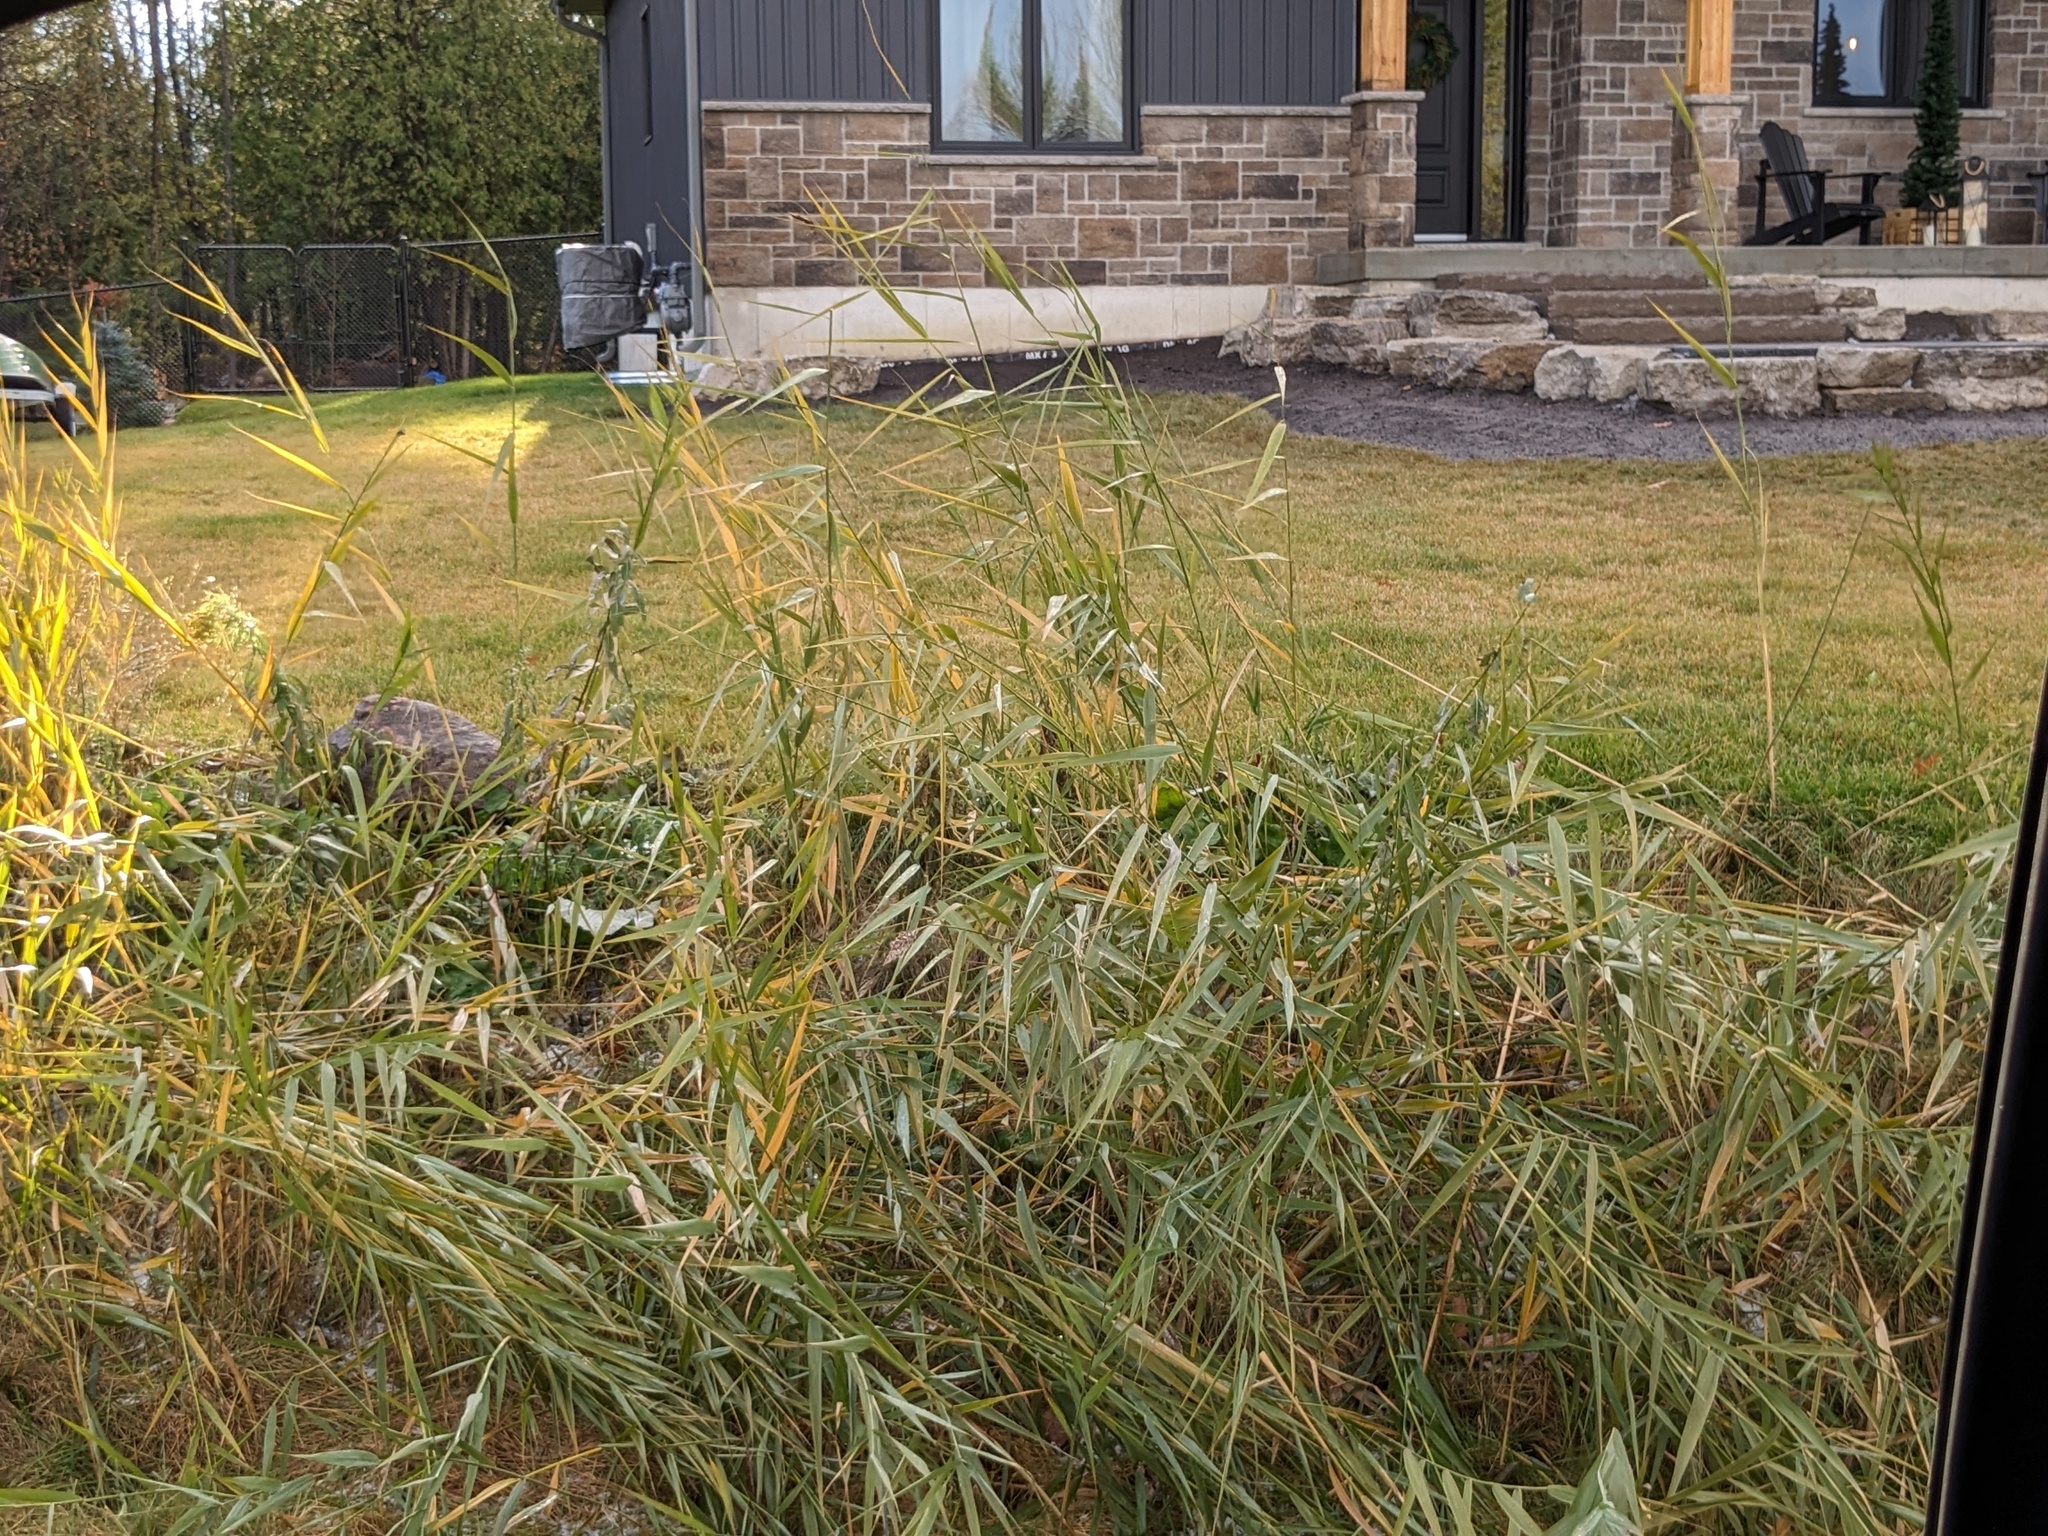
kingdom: Plantae
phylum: Tracheophyta
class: Liliopsida
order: Poales
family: Poaceae
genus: Phragmites
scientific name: Phragmites australis
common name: Common reed
